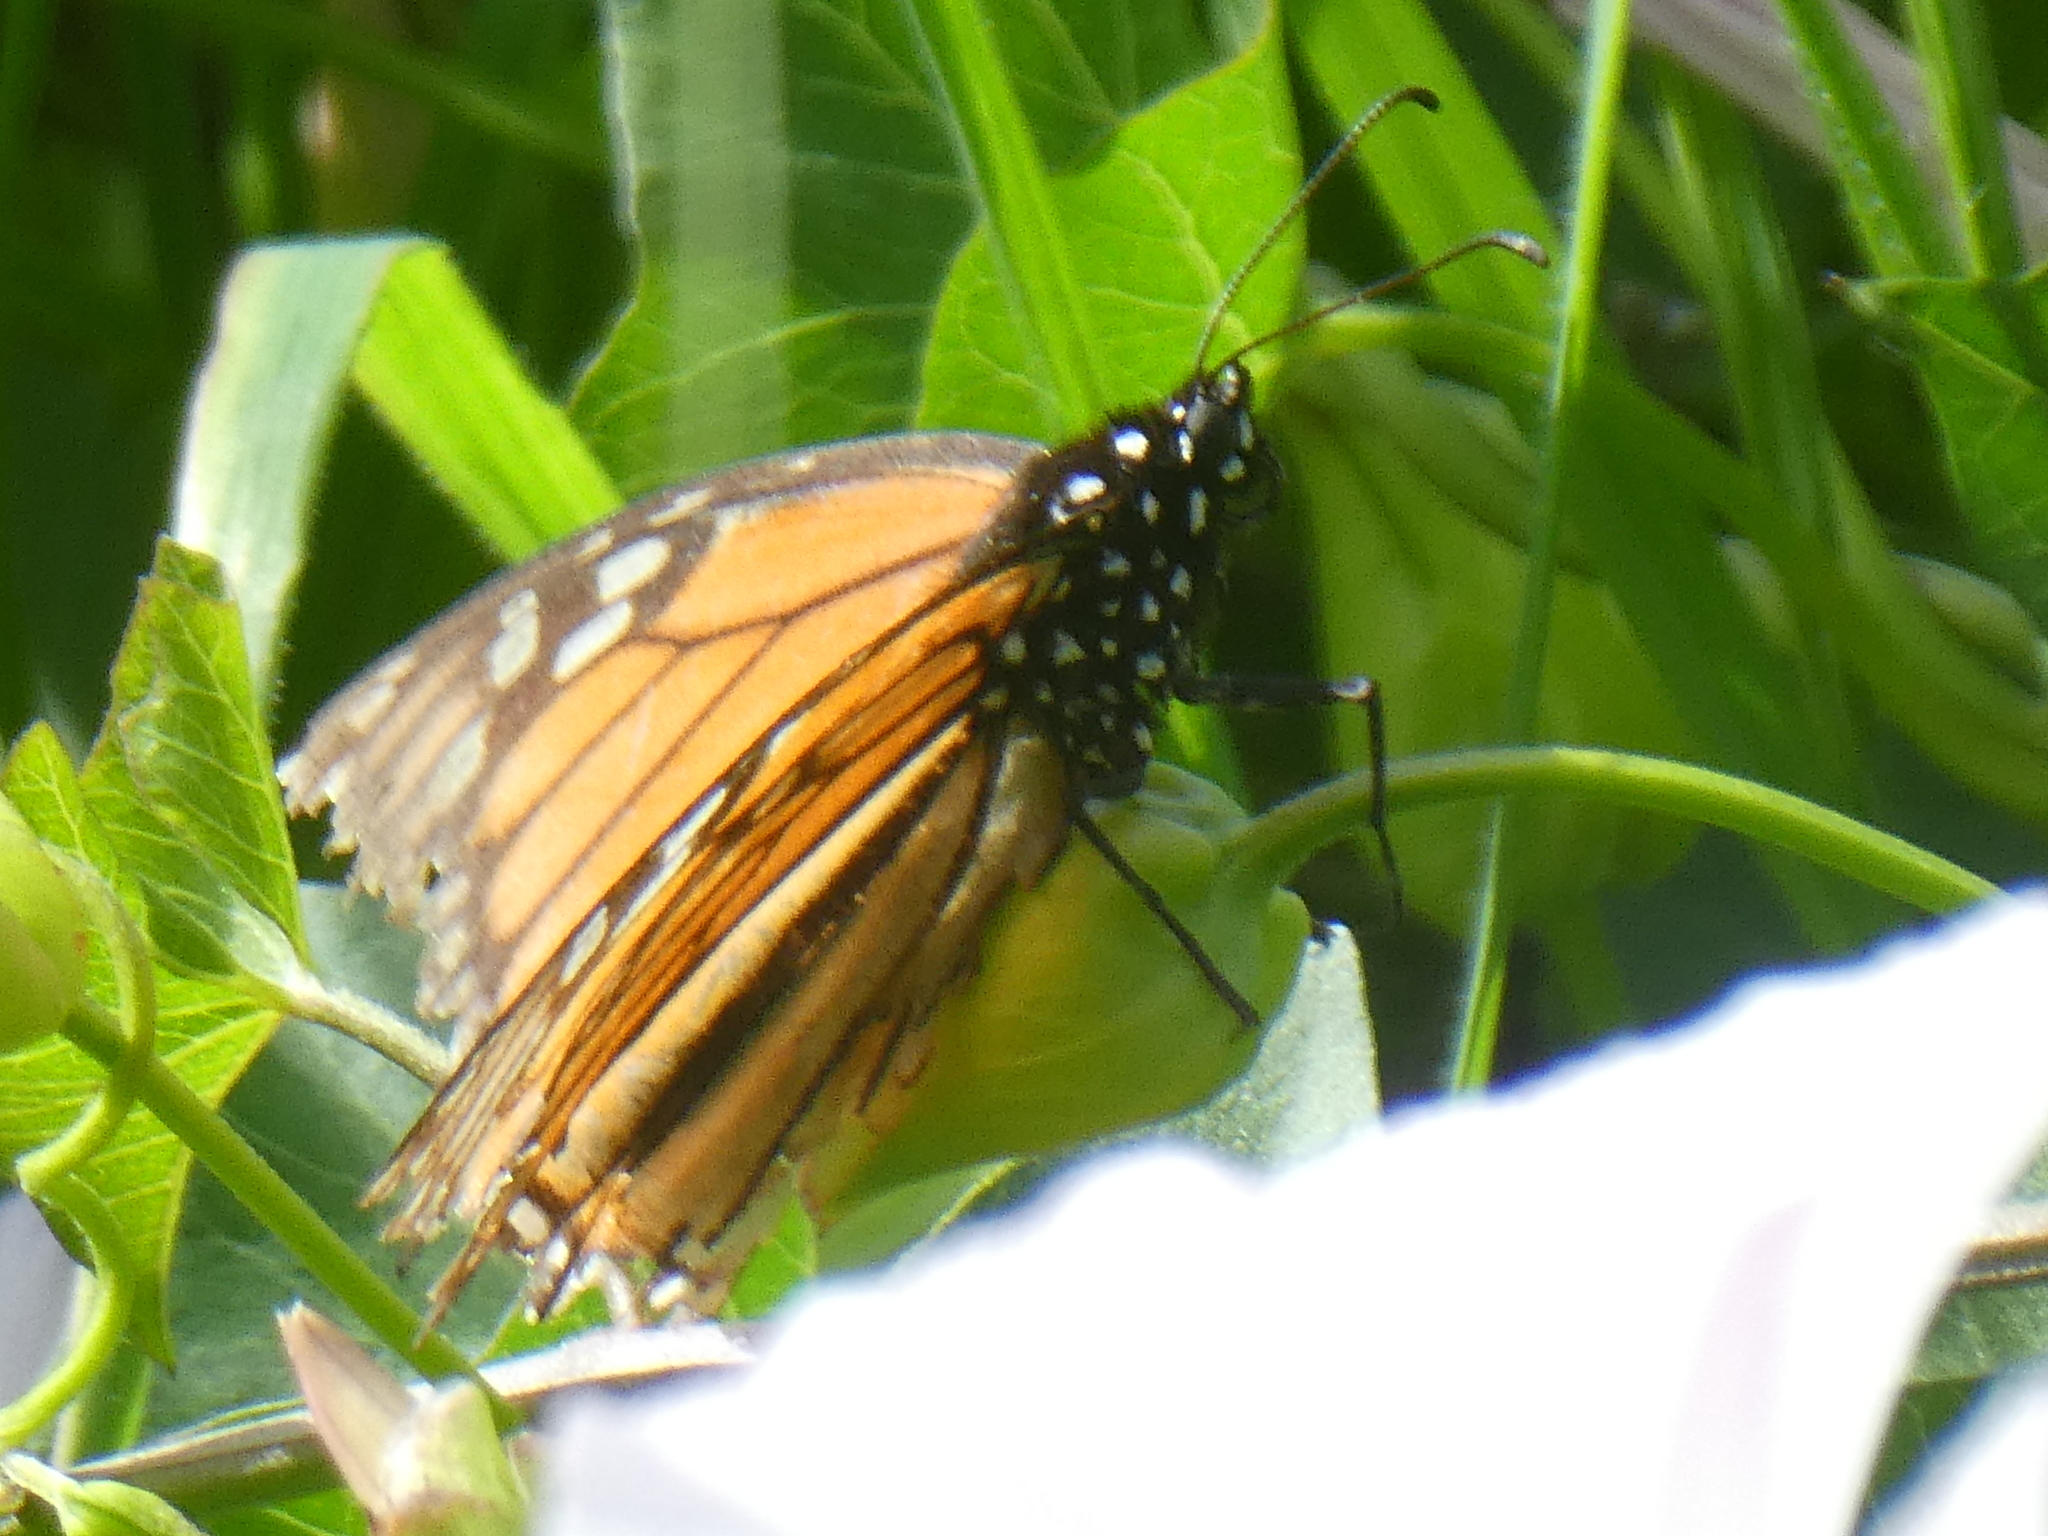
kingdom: Animalia
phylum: Arthropoda
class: Insecta
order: Lepidoptera
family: Nymphalidae
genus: Danaus
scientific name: Danaus plexippus
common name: Monarch
